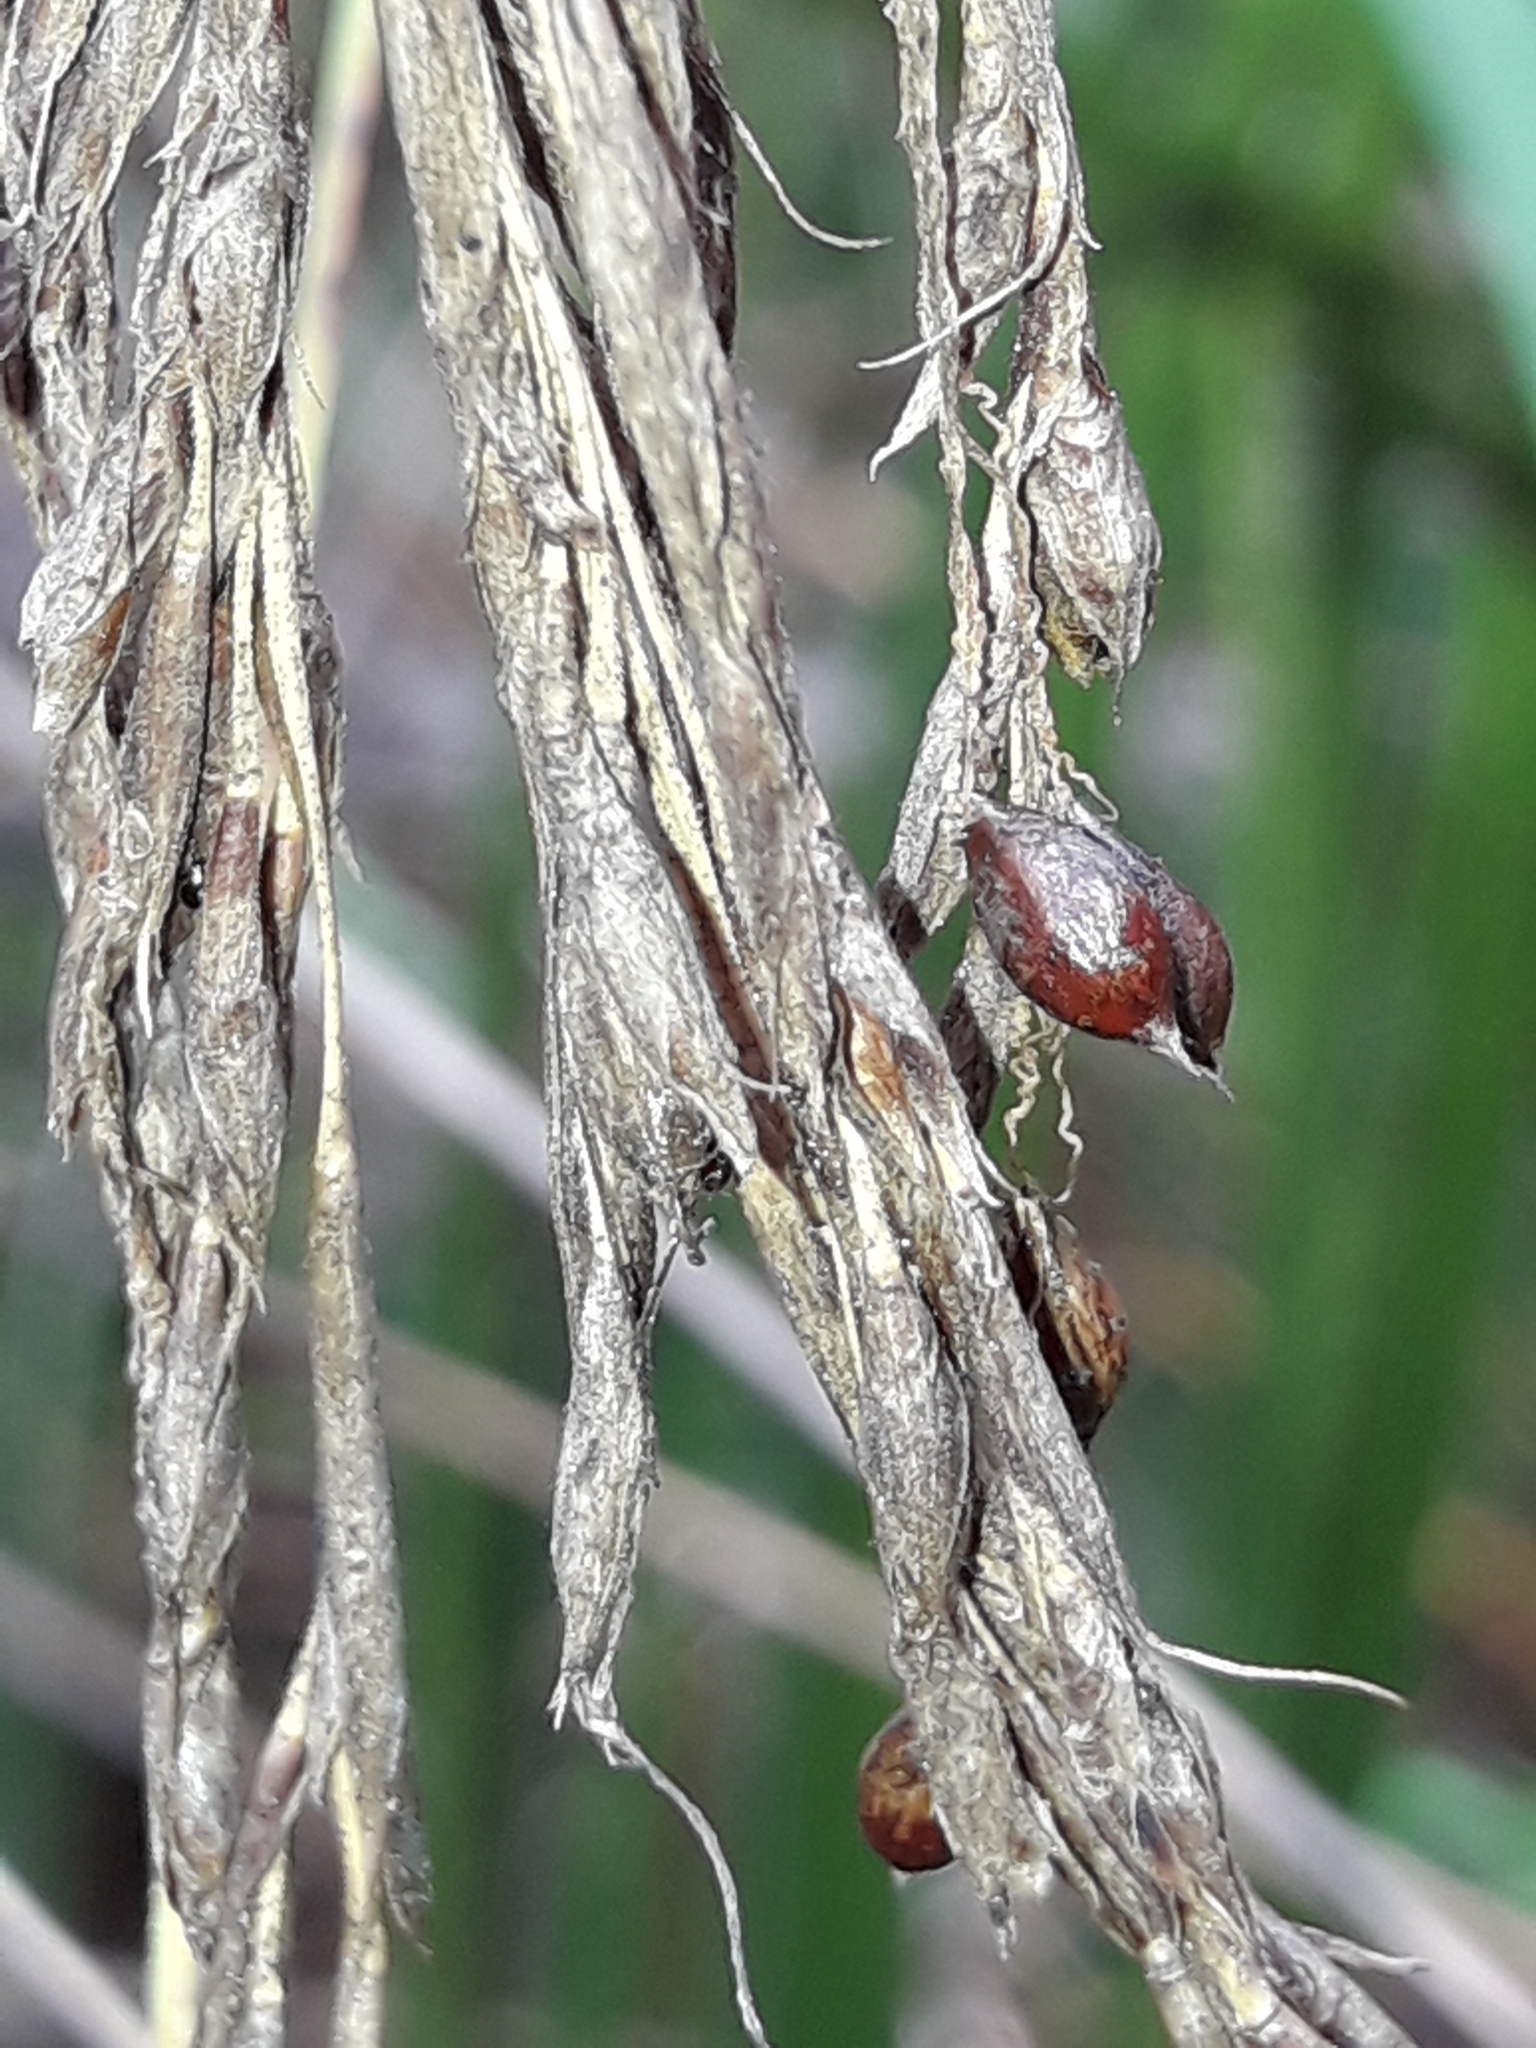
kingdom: Plantae
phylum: Tracheophyta
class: Liliopsida
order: Poales
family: Cyperaceae
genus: Gahnia
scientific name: Gahnia setifolia
